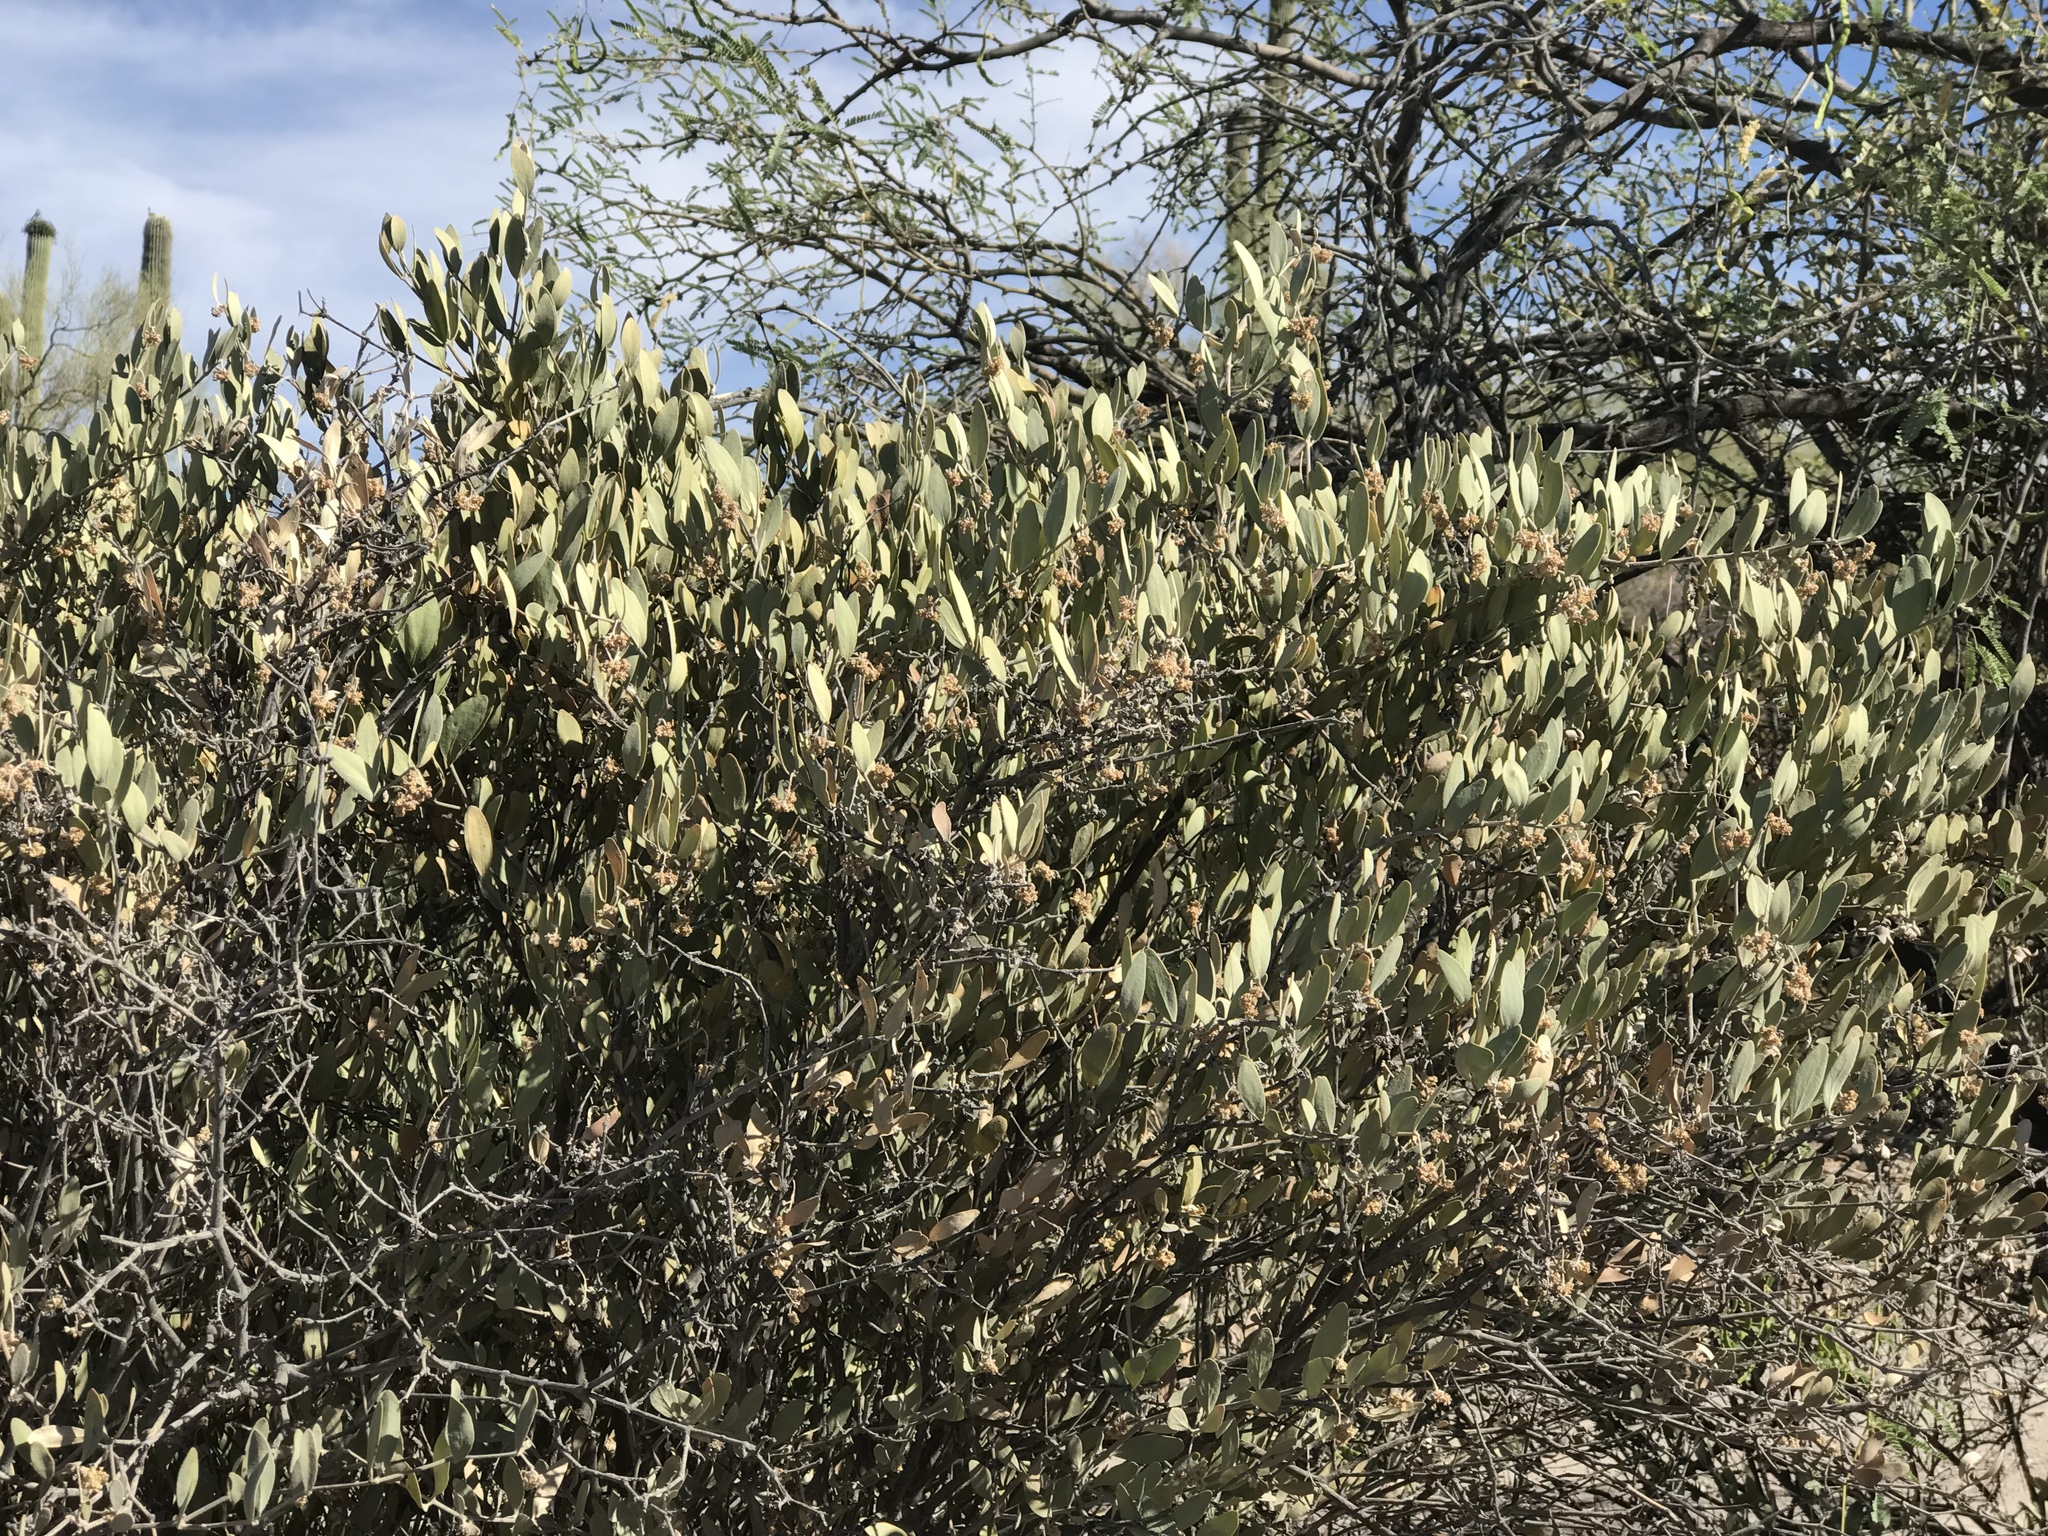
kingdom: Plantae
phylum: Tracheophyta
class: Magnoliopsida
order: Caryophyllales
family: Simmondsiaceae
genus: Simmondsia
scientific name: Simmondsia chinensis
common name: Jojoba
